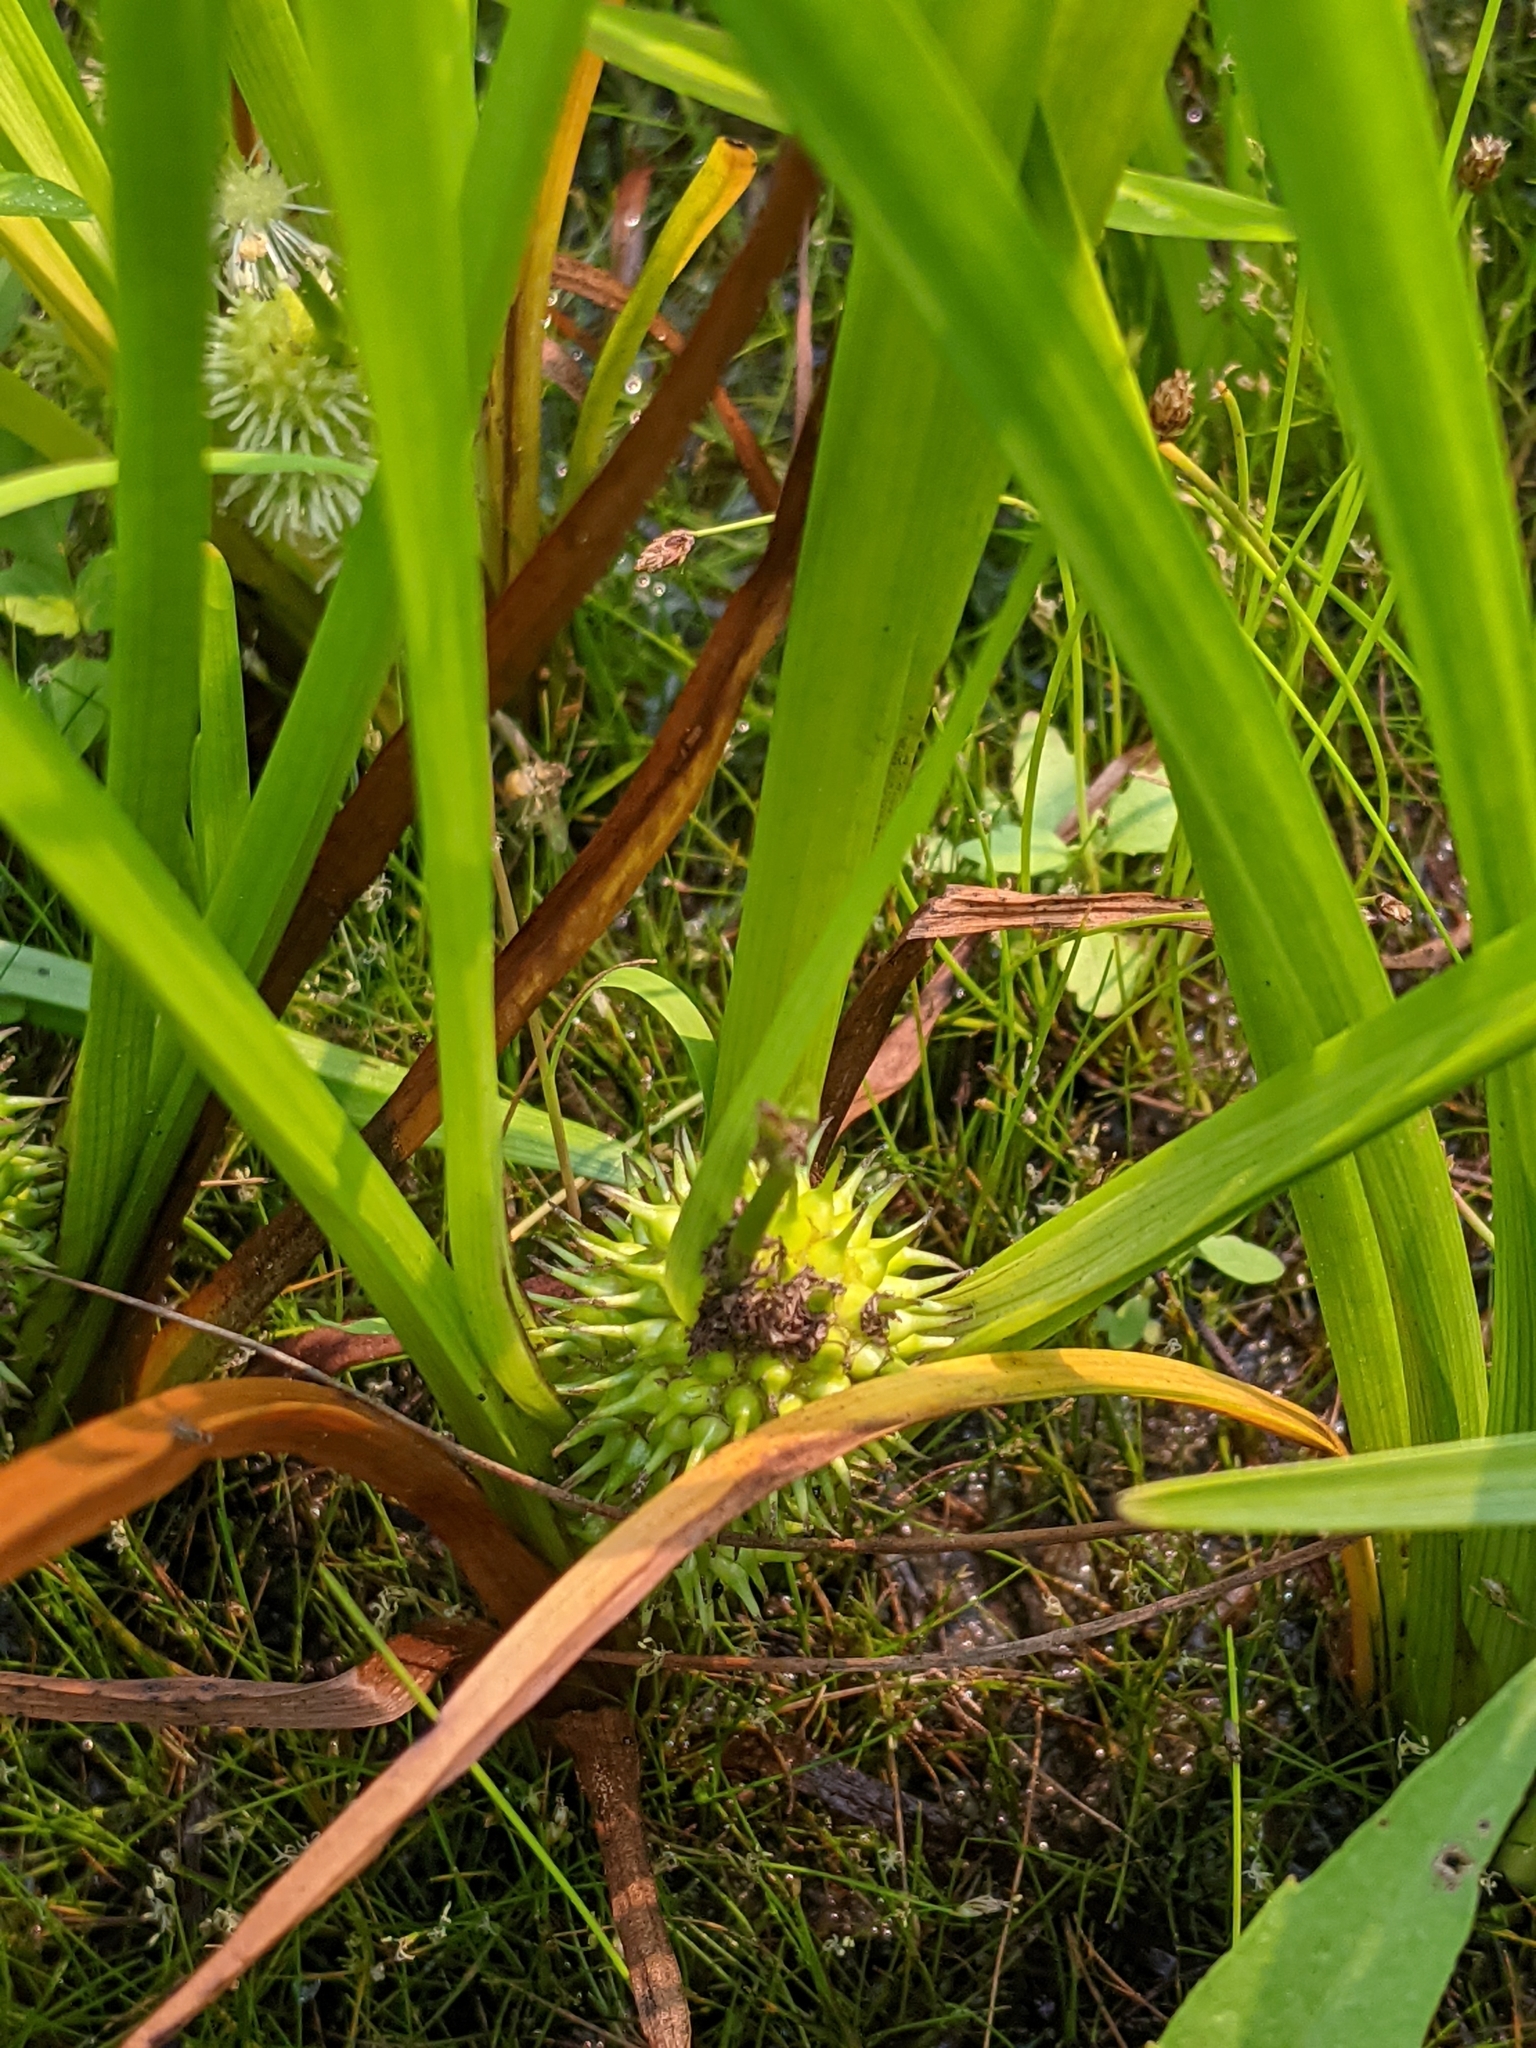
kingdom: Plantae
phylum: Tracheophyta
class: Liliopsida
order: Poales
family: Typhaceae
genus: Sparganium
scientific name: Sparganium emersum
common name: Unbranched bur-reed
